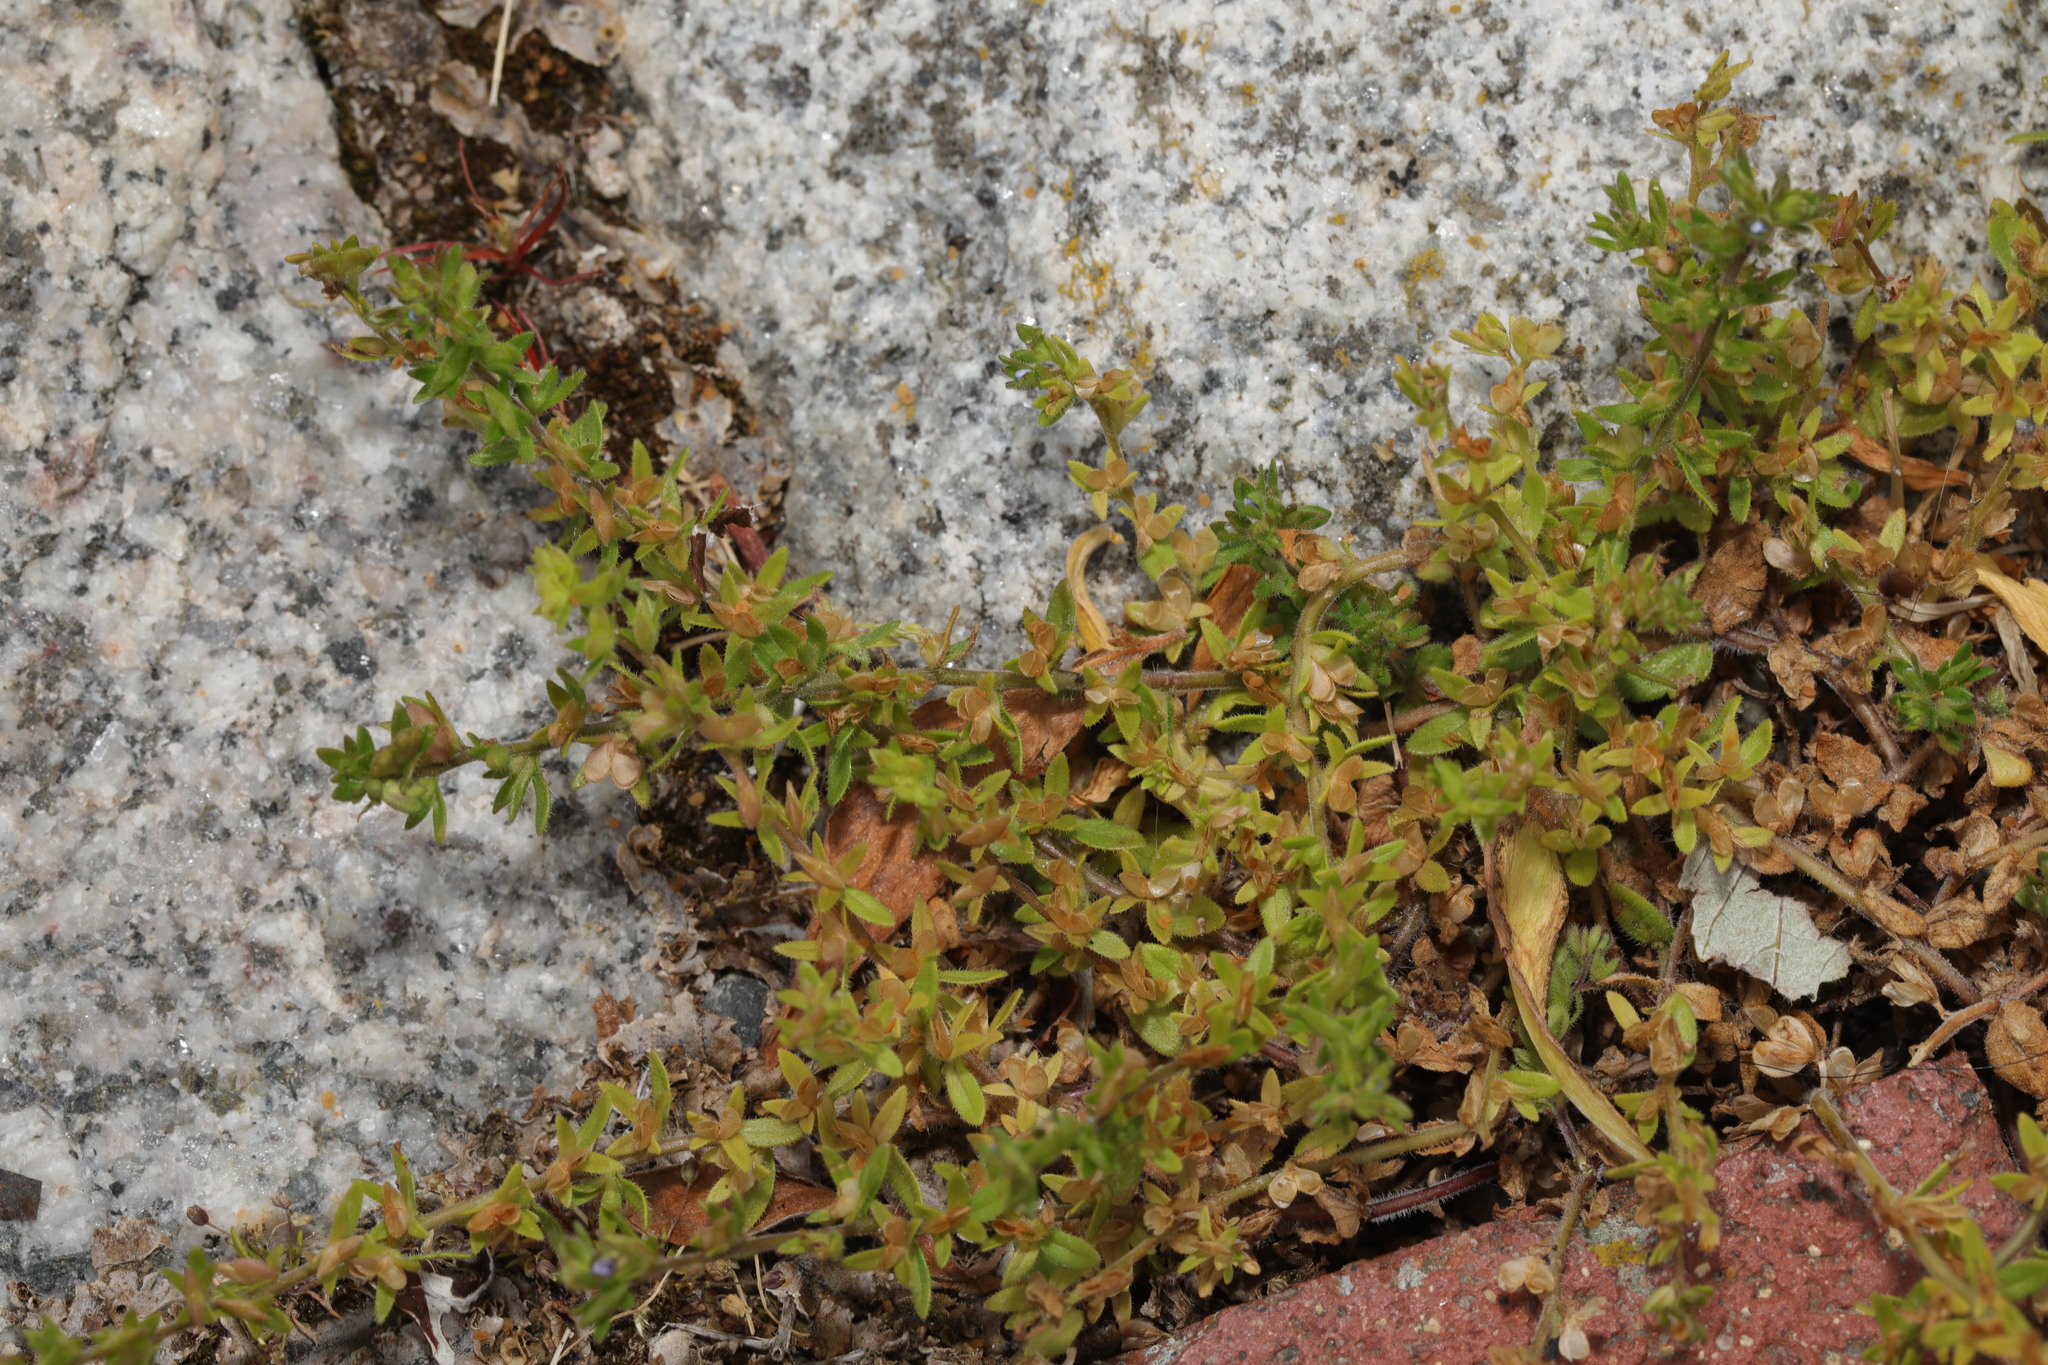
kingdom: Plantae
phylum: Tracheophyta
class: Magnoliopsida
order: Lamiales
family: Plantaginaceae
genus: Veronica
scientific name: Veronica arvensis
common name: Corn speedwell
